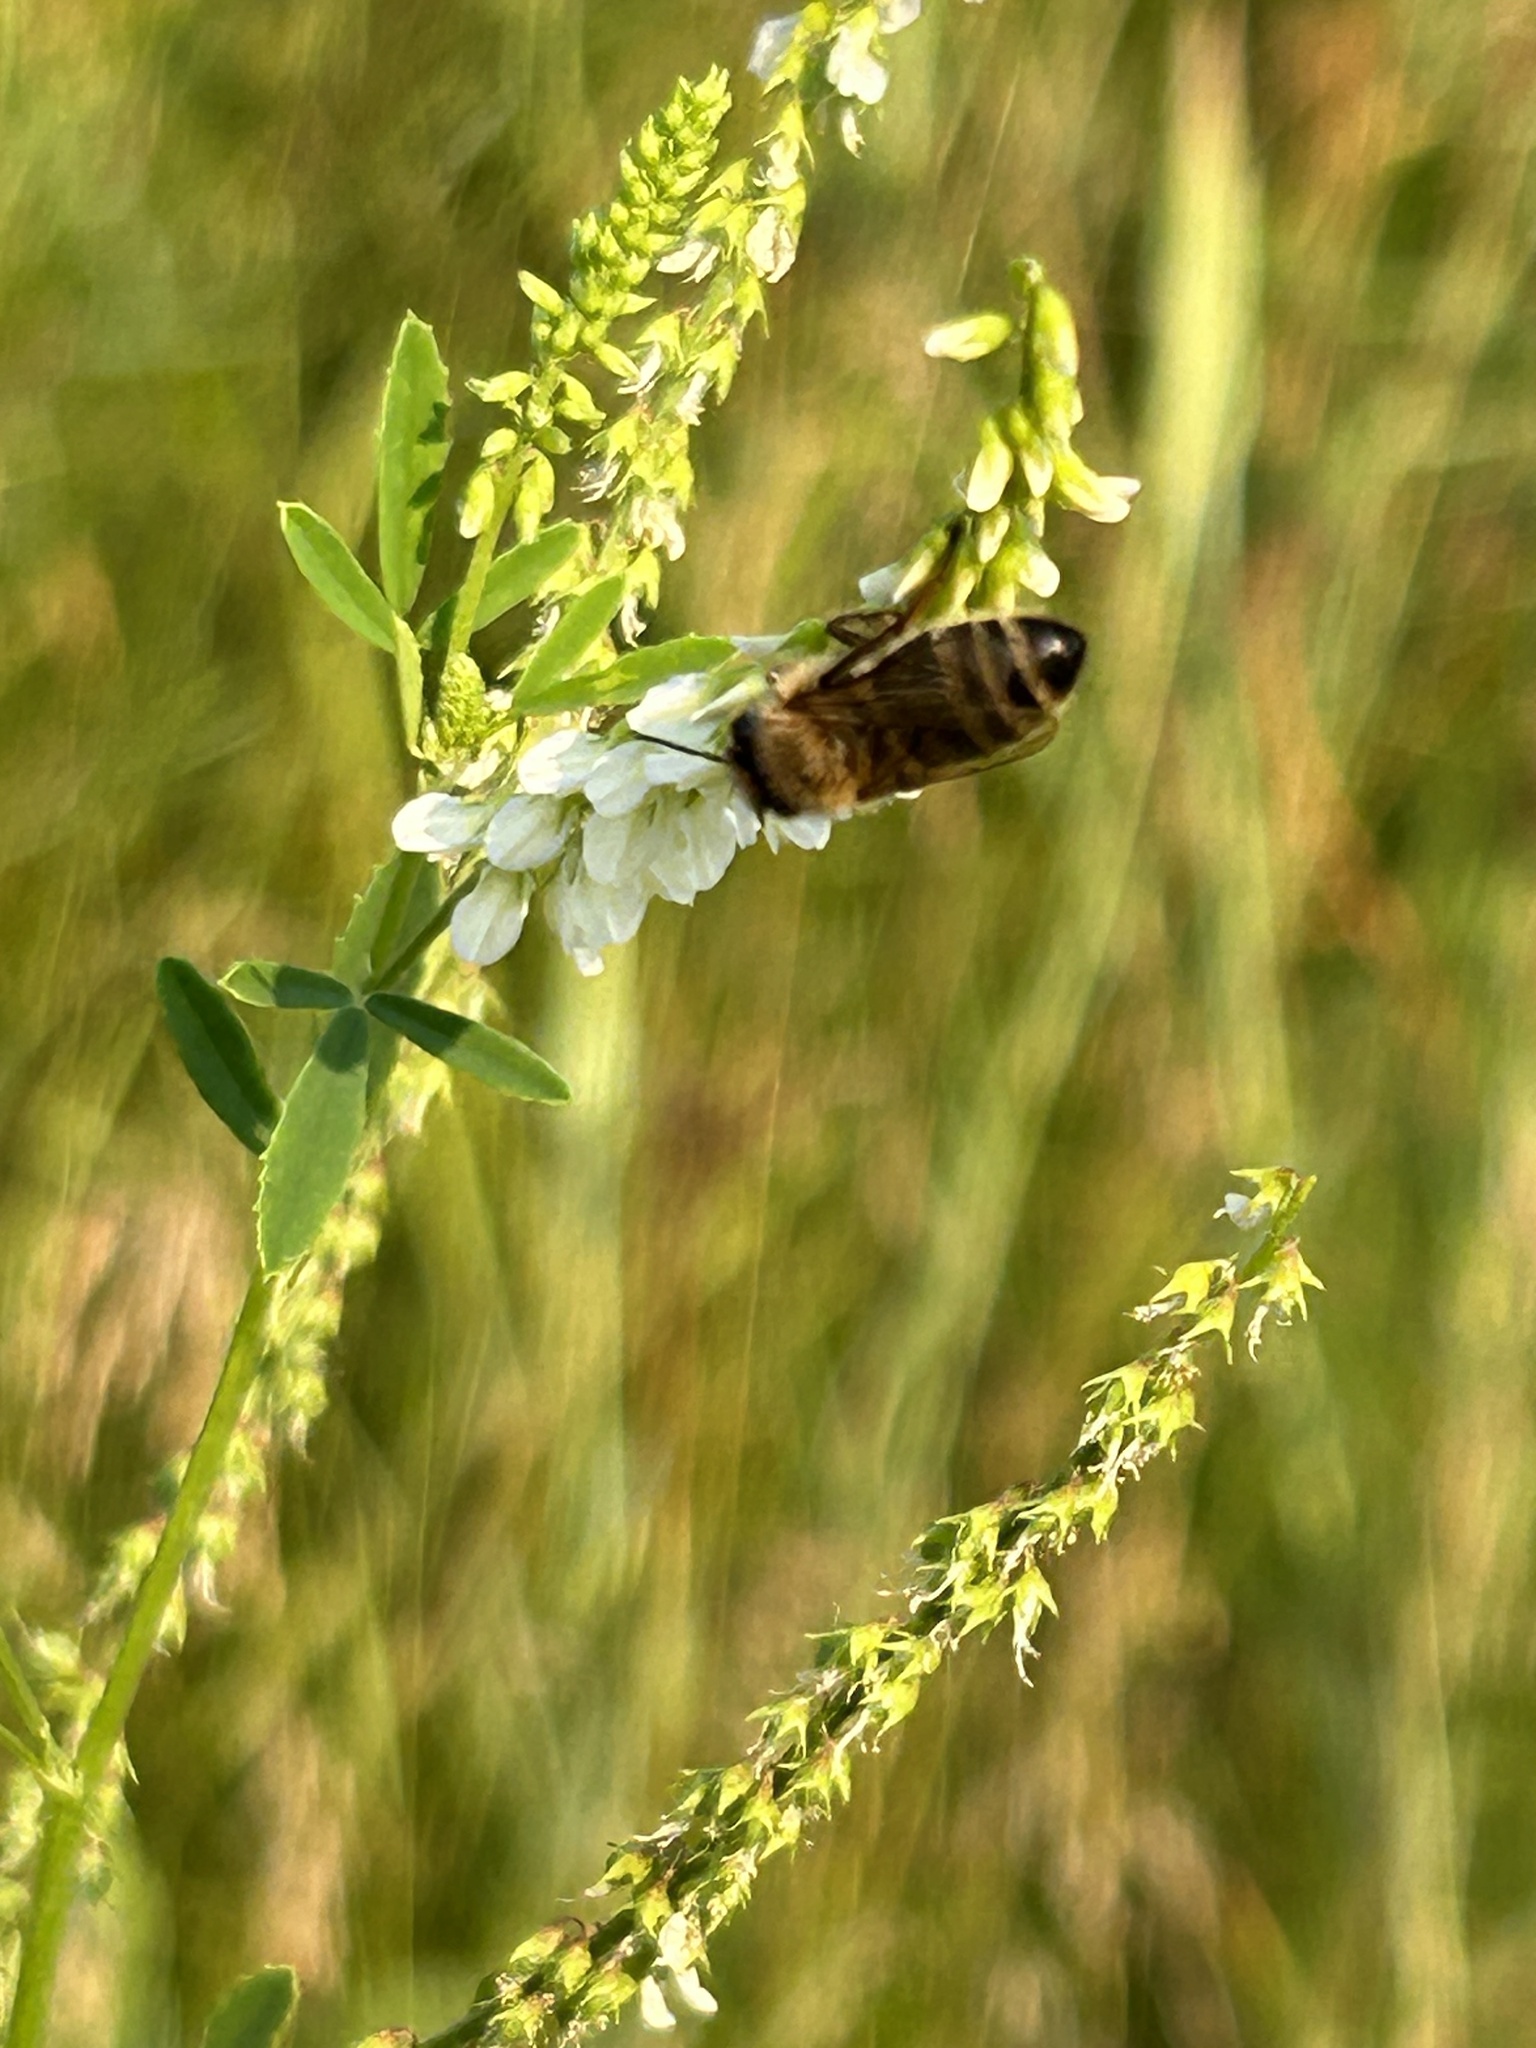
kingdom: Animalia
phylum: Arthropoda
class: Insecta
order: Hymenoptera
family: Apidae
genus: Apis
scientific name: Apis mellifera
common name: Honey bee
